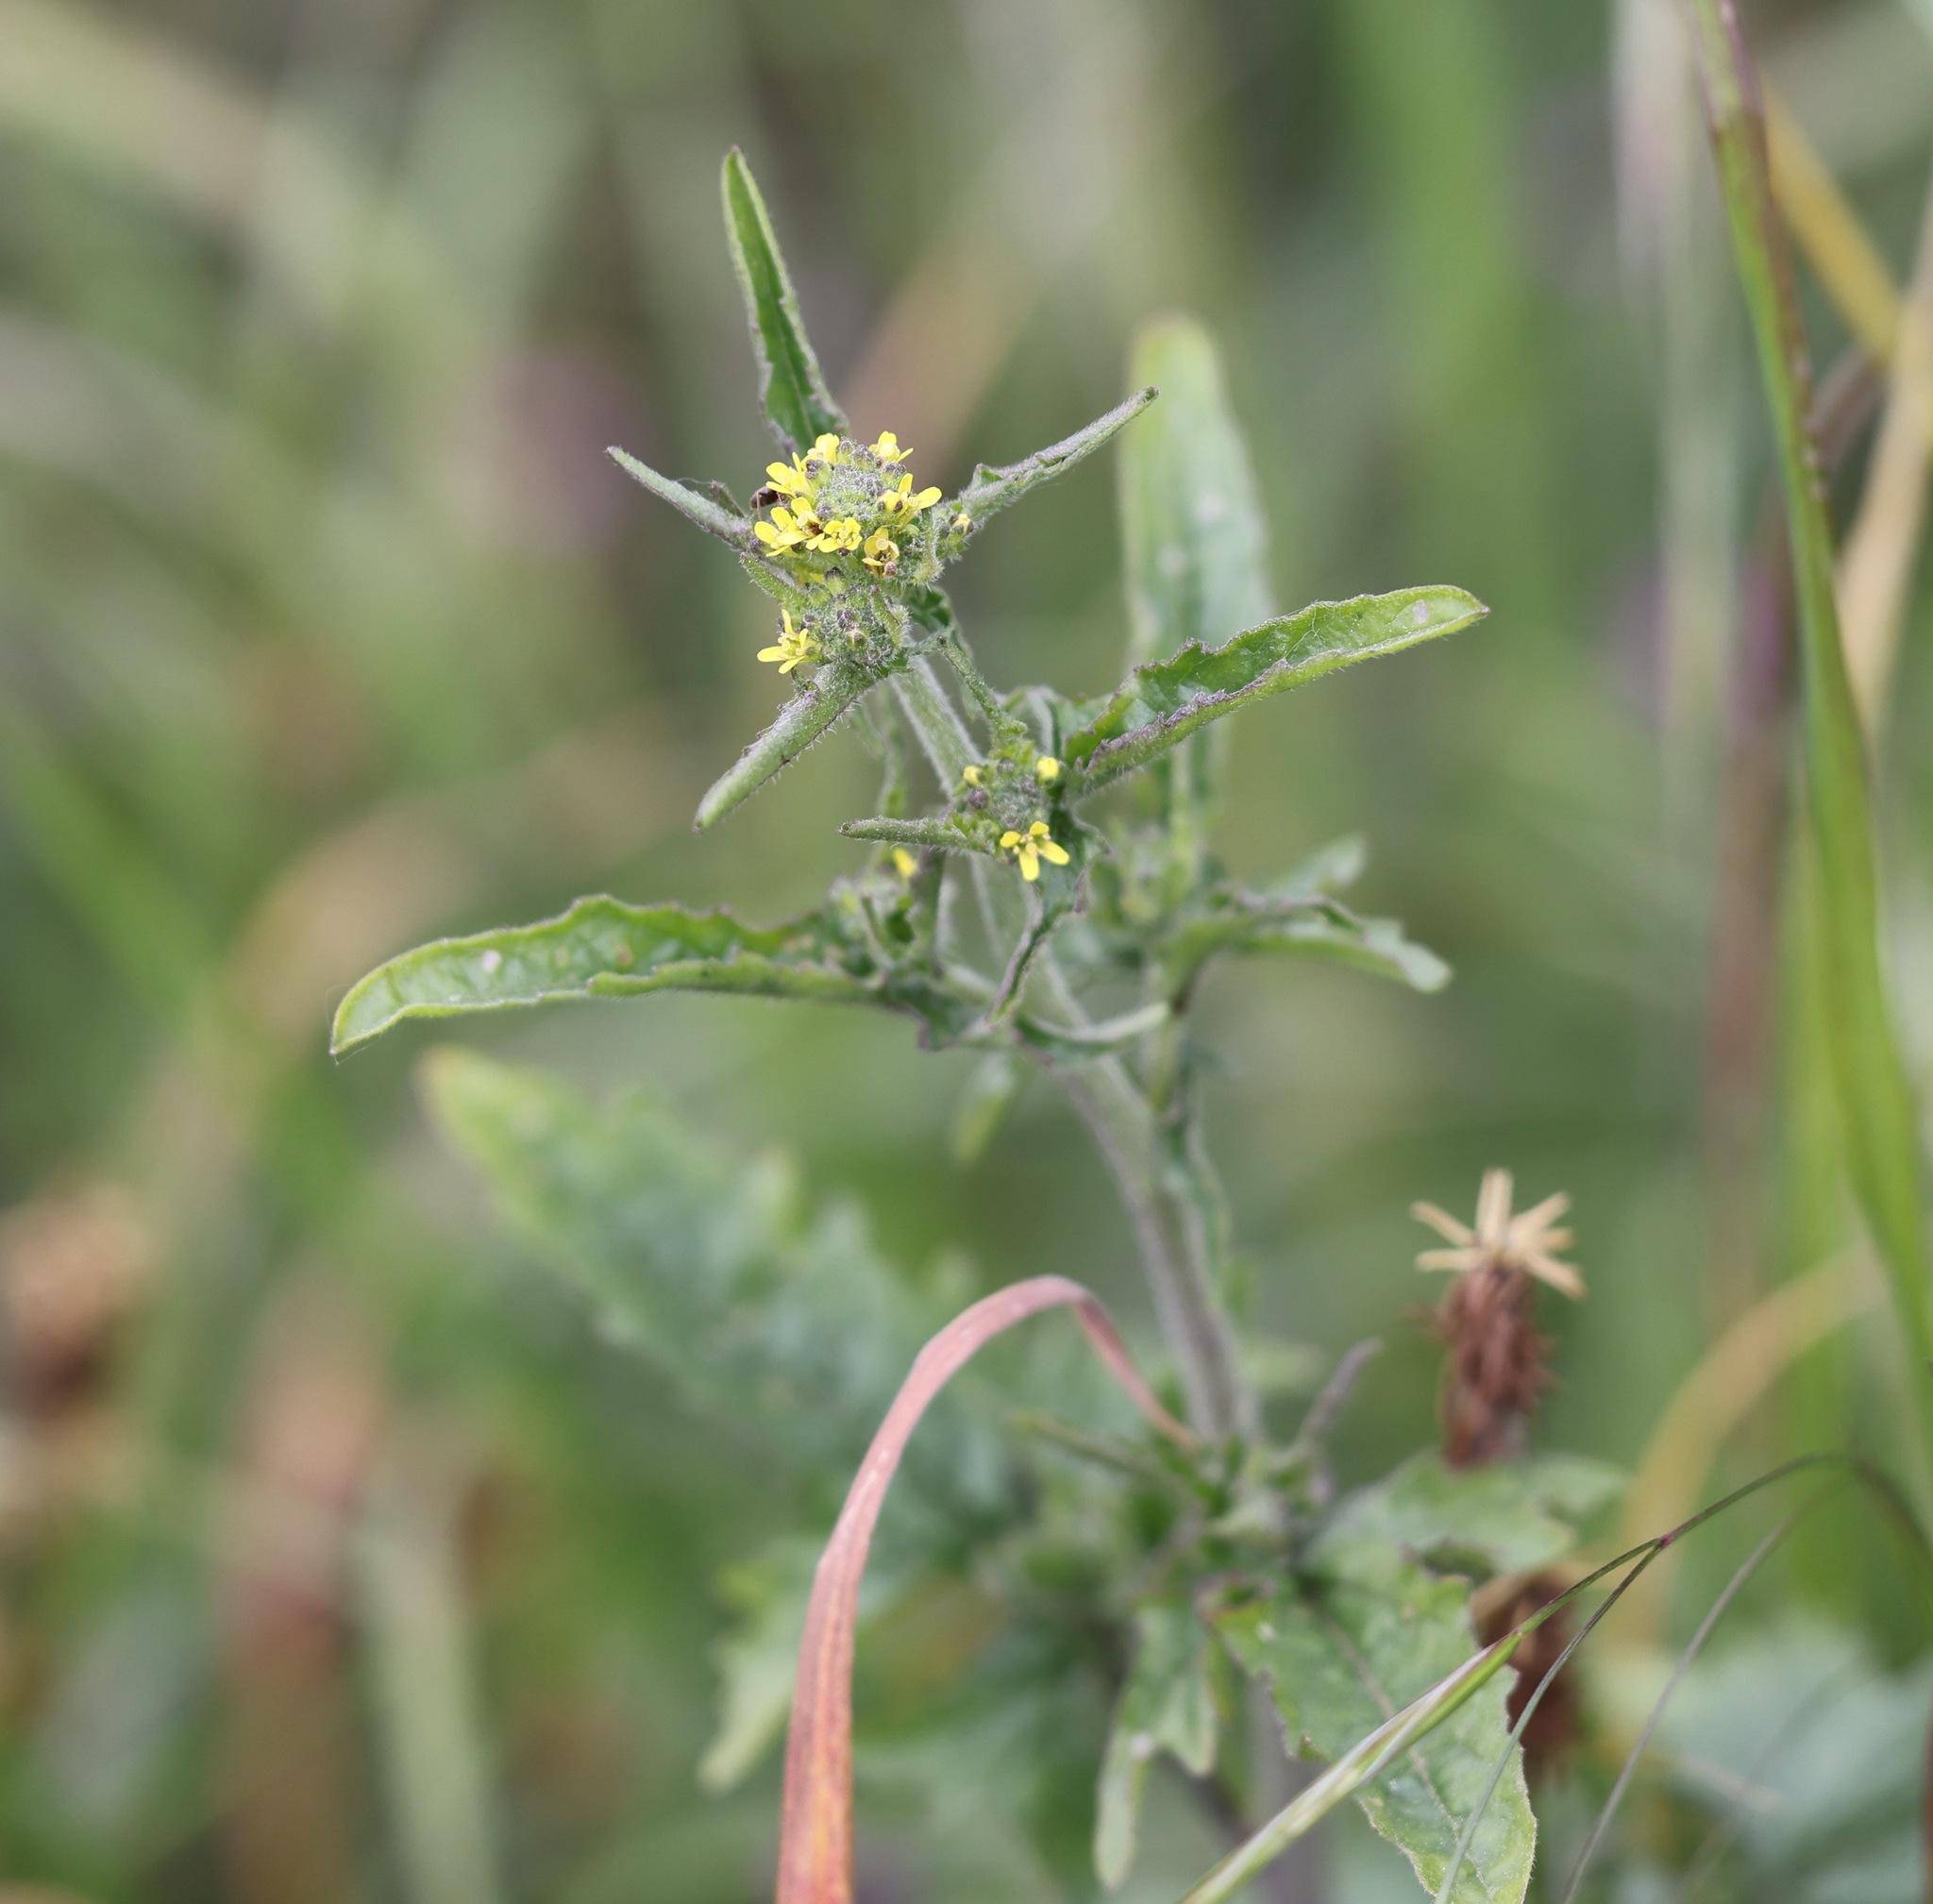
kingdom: Plantae
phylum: Tracheophyta
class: Magnoliopsida
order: Brassicales
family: Brassicaceae
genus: Sisymbrium
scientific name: Sisymbrium officinale
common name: Hedge mustard
